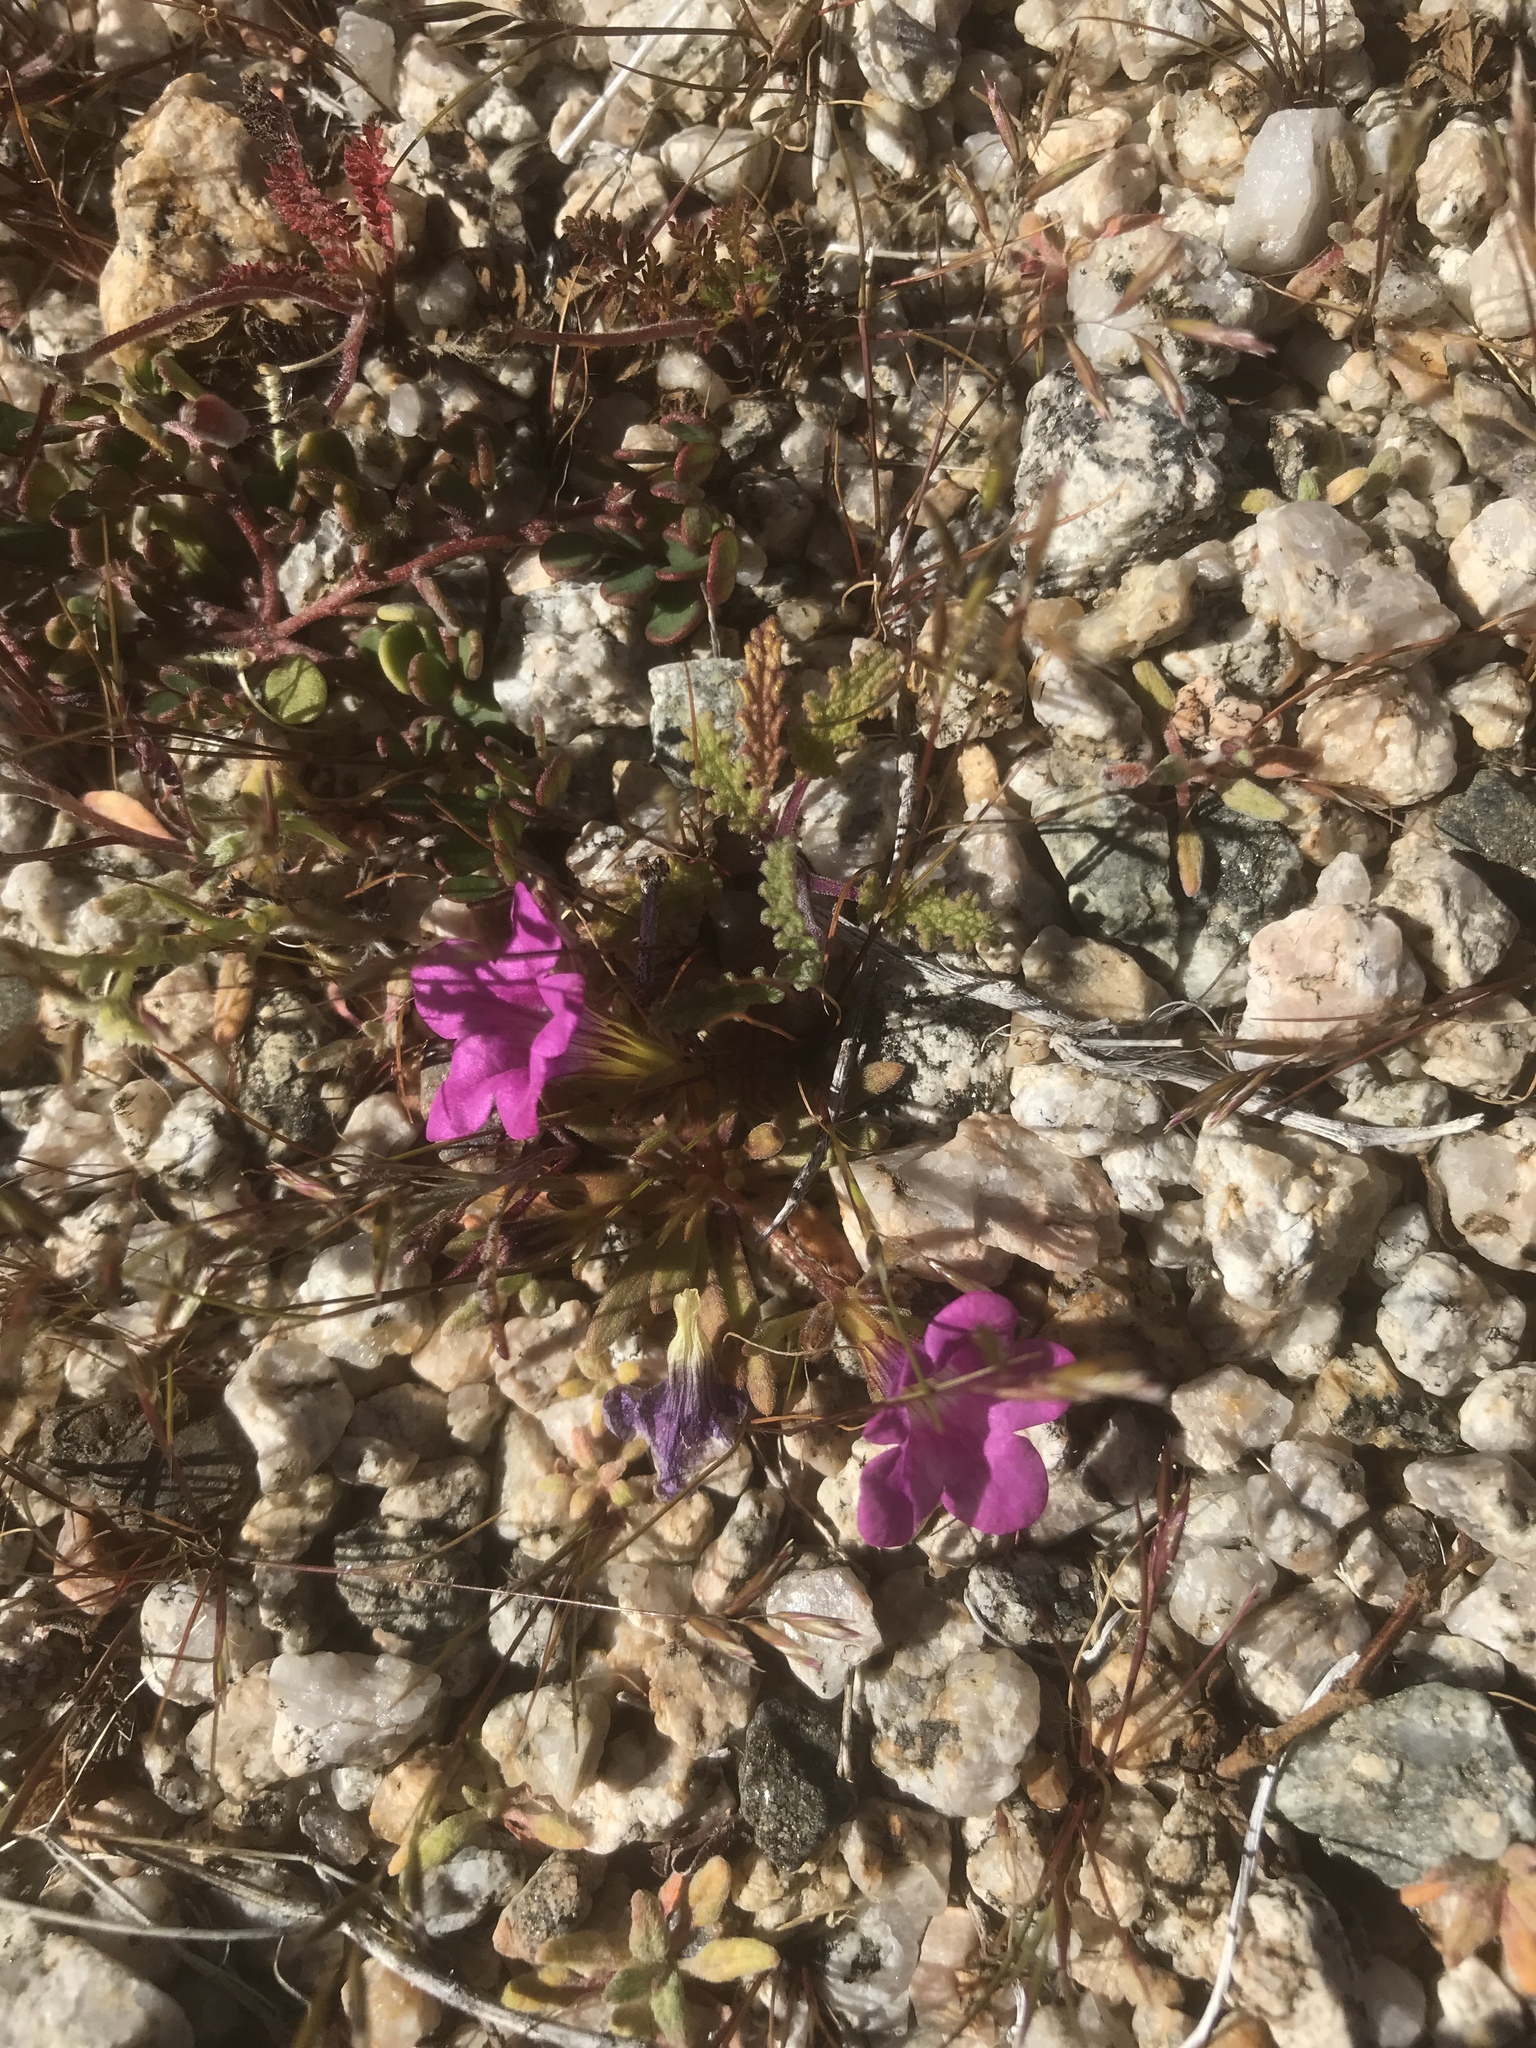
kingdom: Plantae
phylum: Tracheophyta
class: Magnoliopsida
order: Boraginales
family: Namaceae
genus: Nama
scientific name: Nama demissa
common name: Leafy nama
